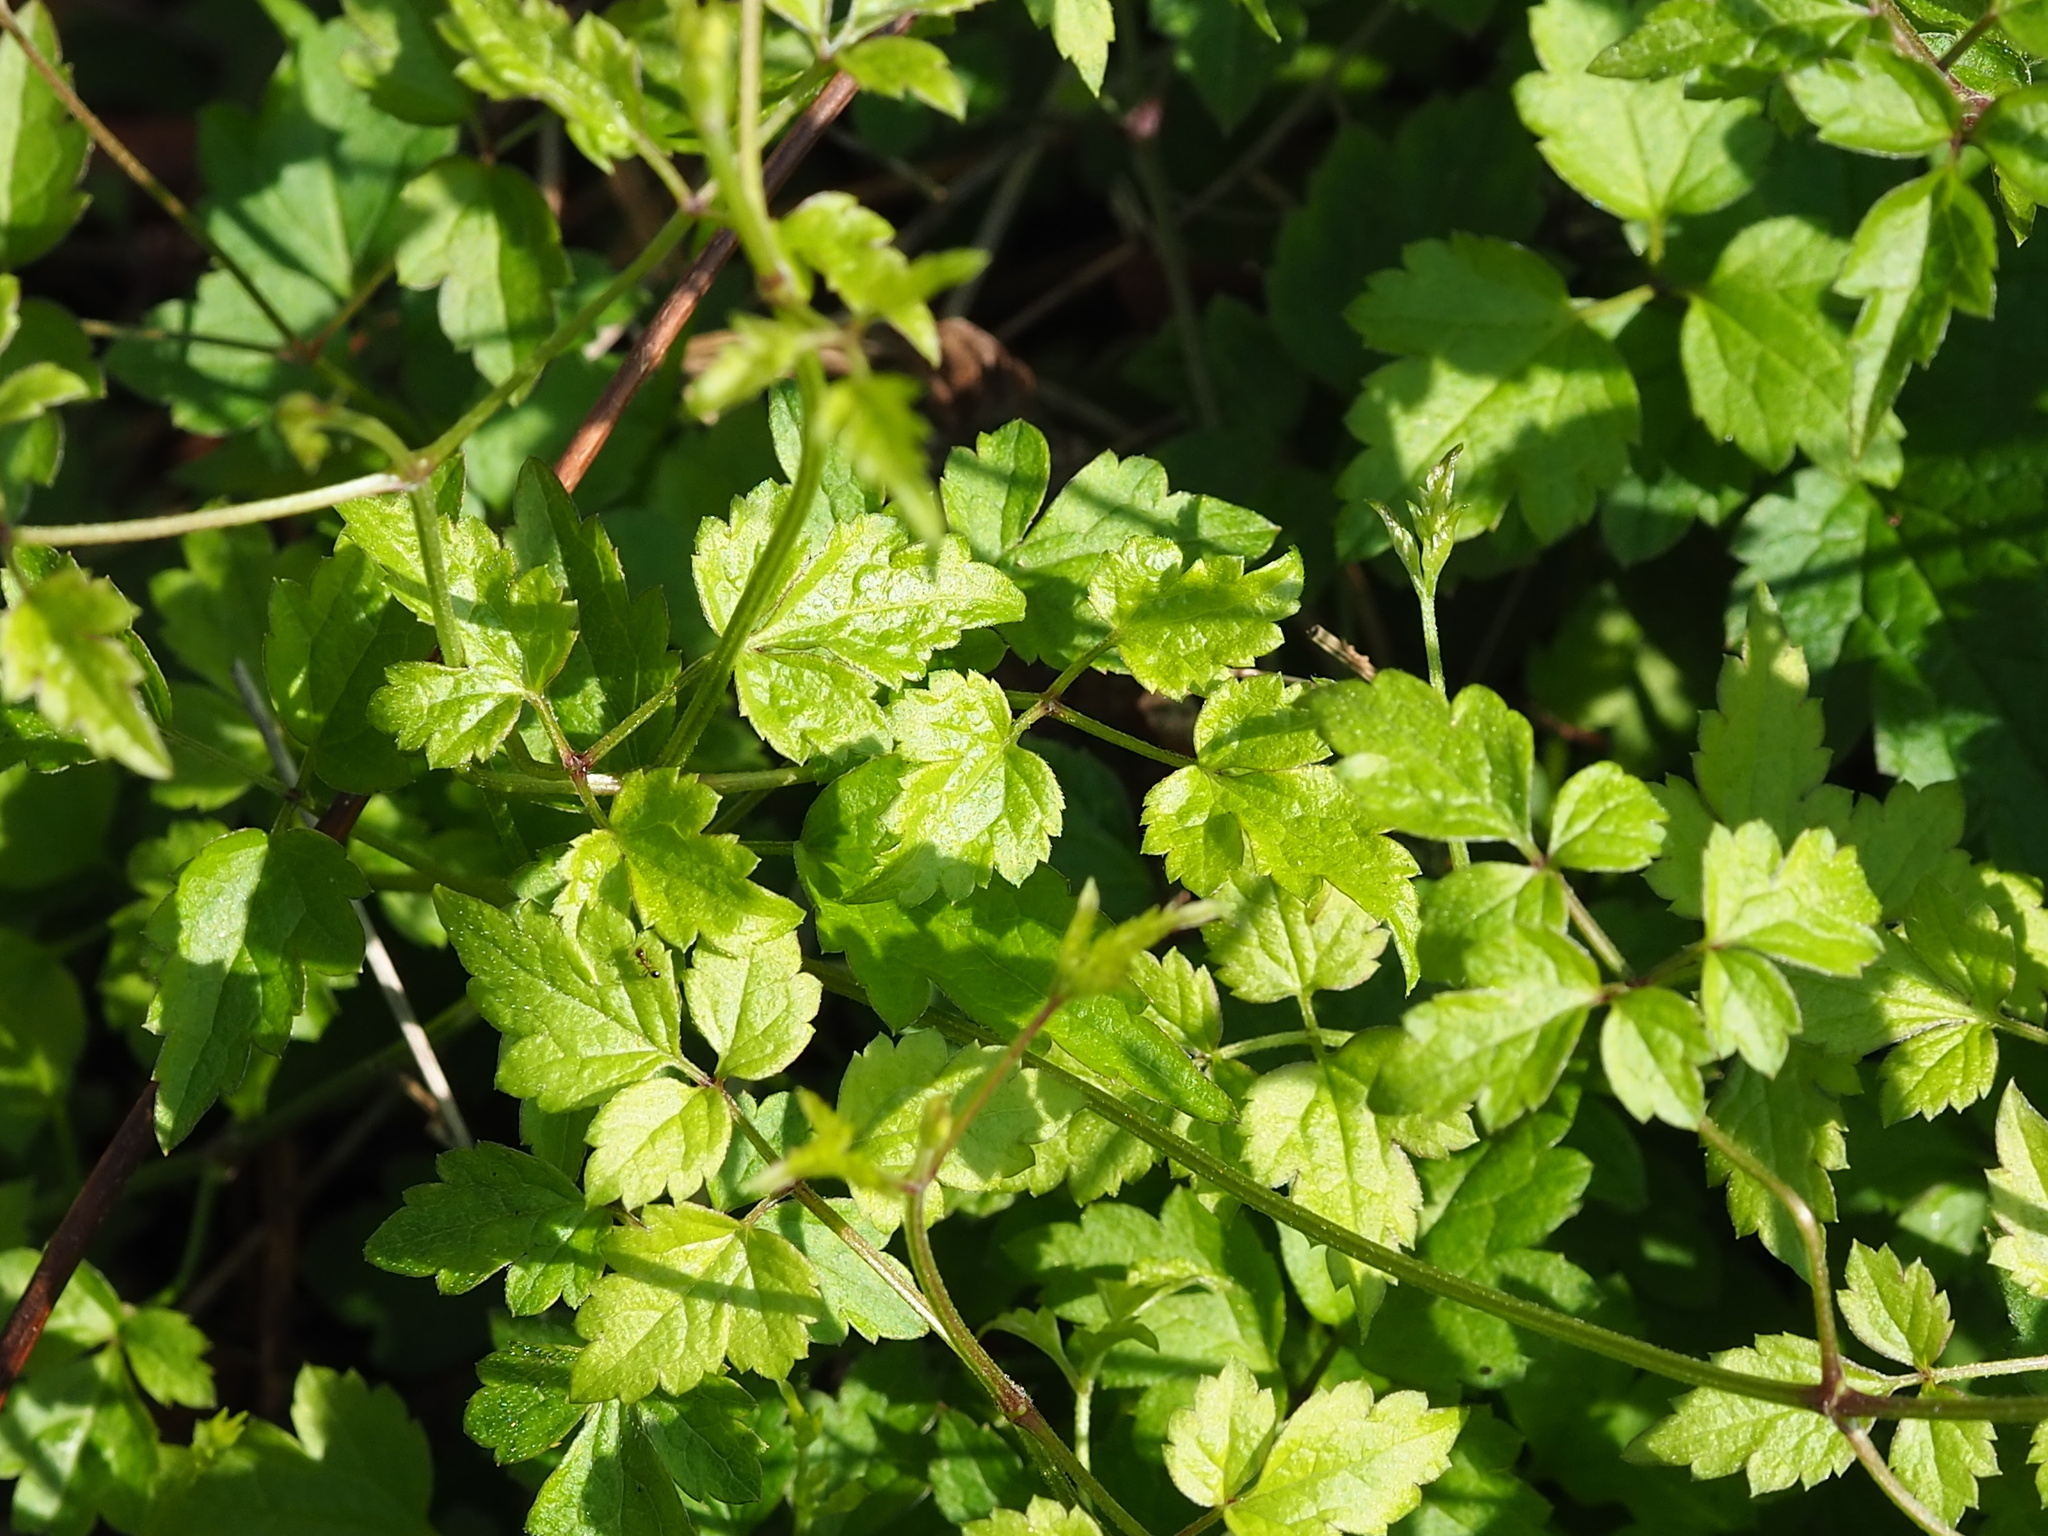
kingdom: Plantae
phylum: Tracheophyta
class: Magnoliopsida
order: Ranunculales
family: Ranunculaceae
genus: Clematis
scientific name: Clematis grata
